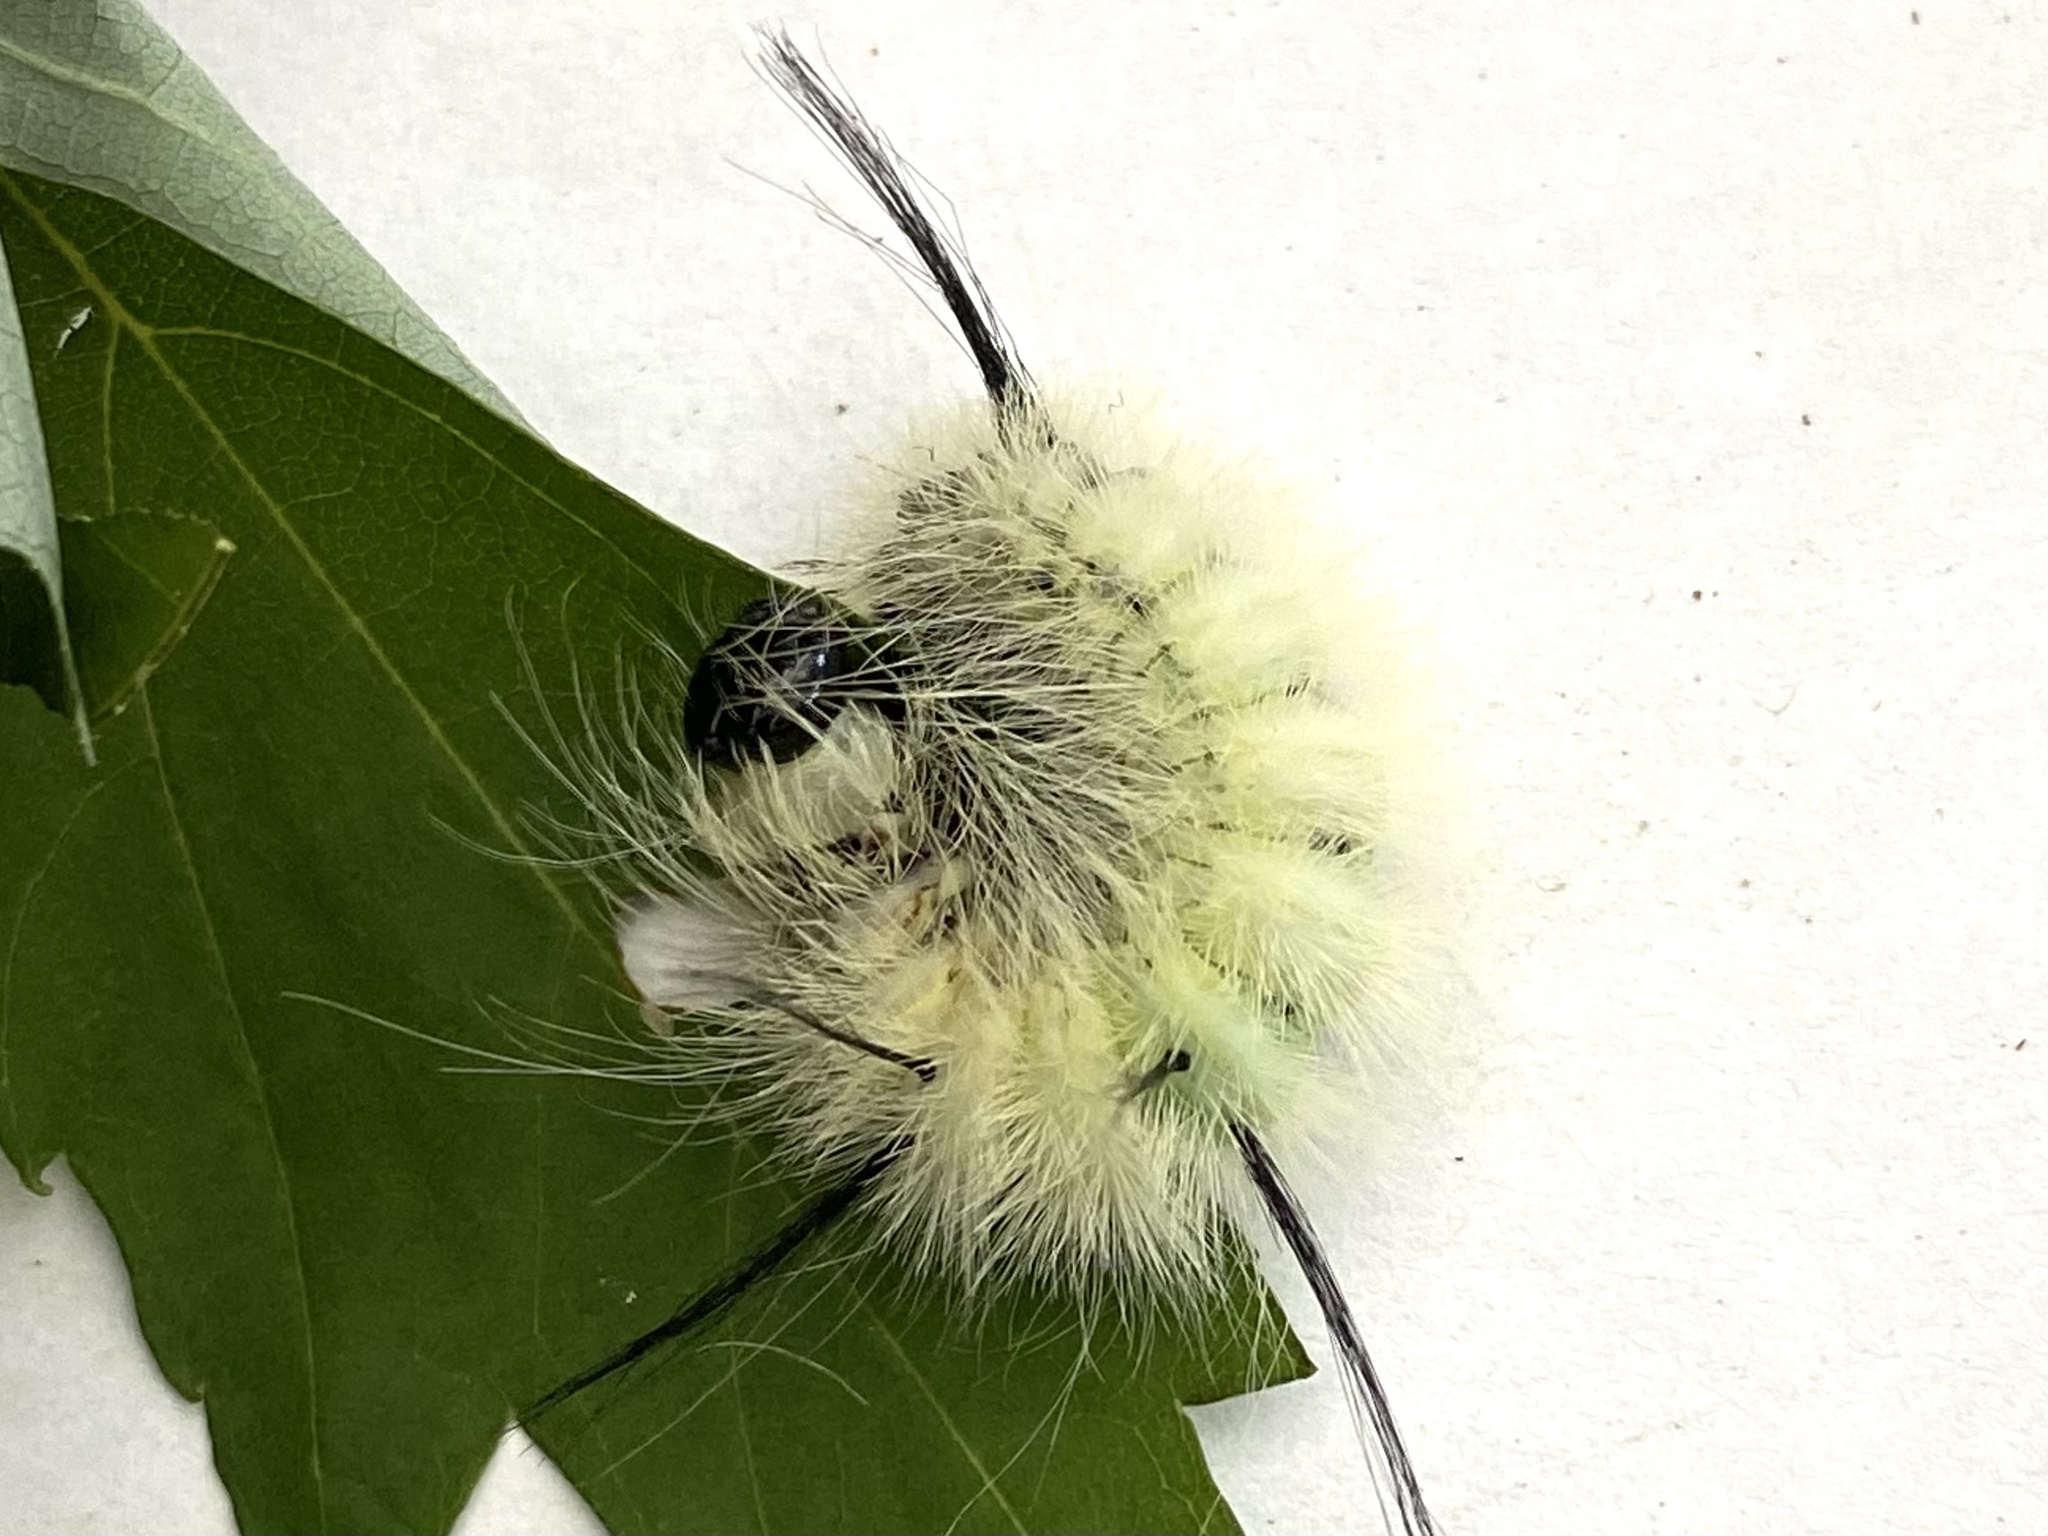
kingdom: Animalia
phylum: Arthropoda
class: Insecta
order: Lepidoptera
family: Noctuidae
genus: Acronicta
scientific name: Acronicta americana
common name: American dagger
